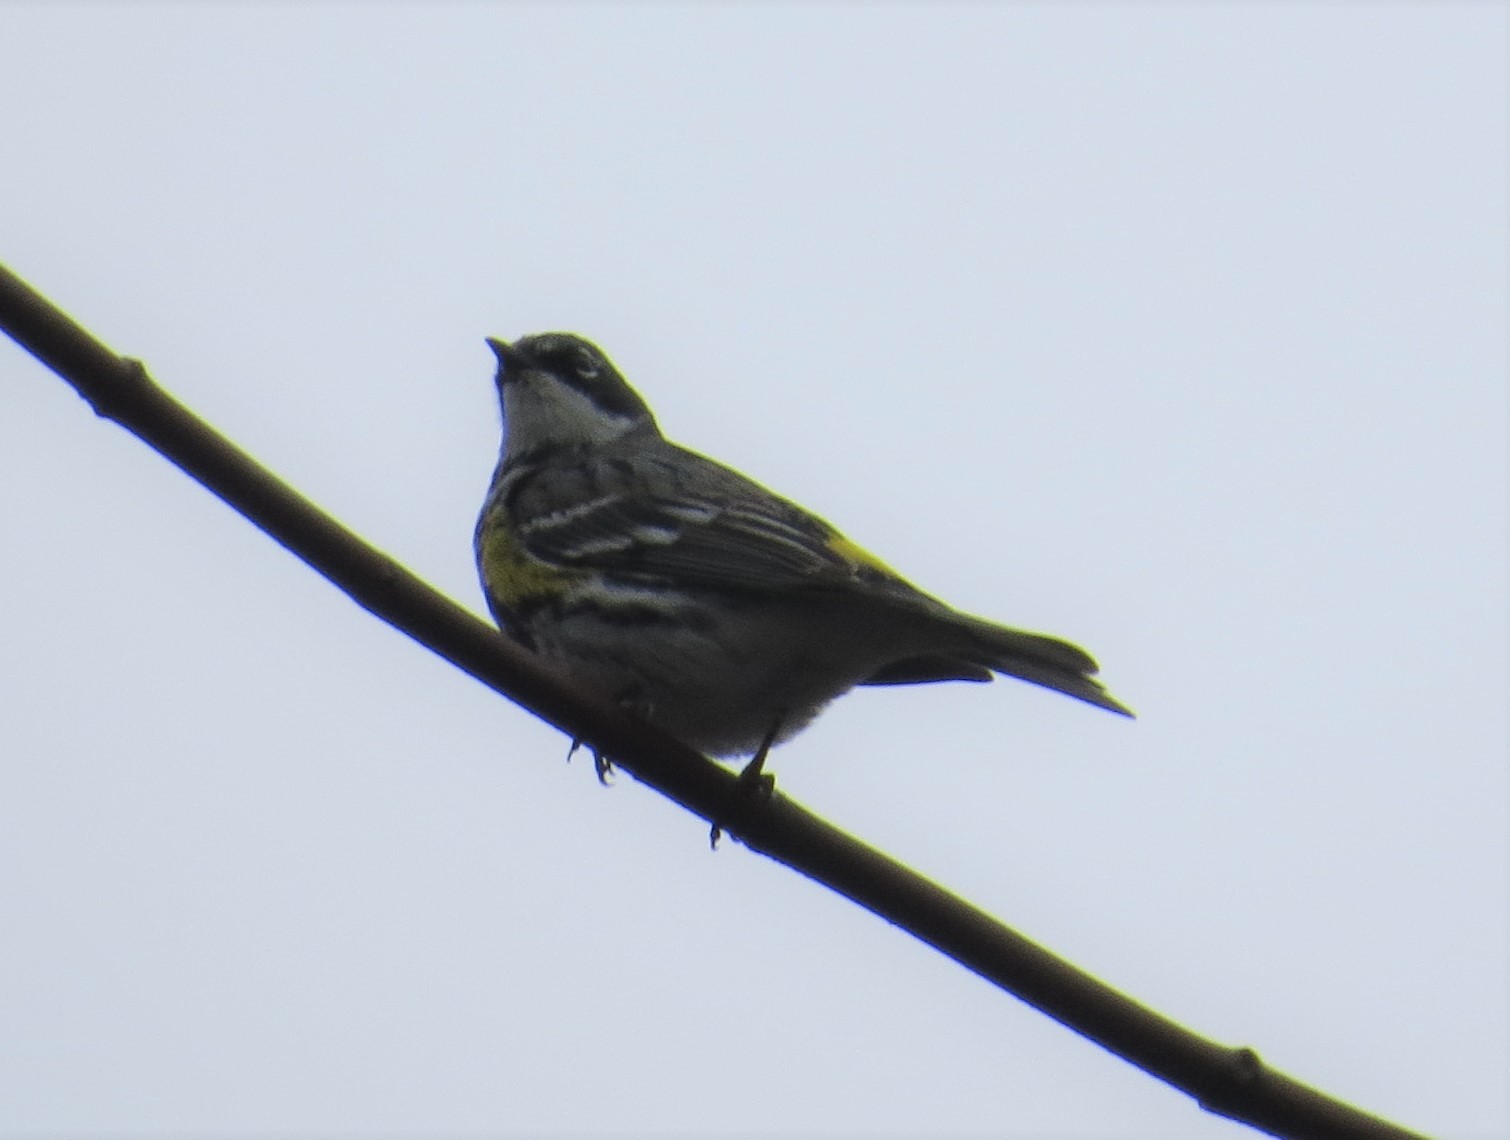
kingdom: Animalia
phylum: Chordata
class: Aves
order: Passeriformes
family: Parulidae
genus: Setophaga
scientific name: Setophaga coronata
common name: Myrtle warbler
